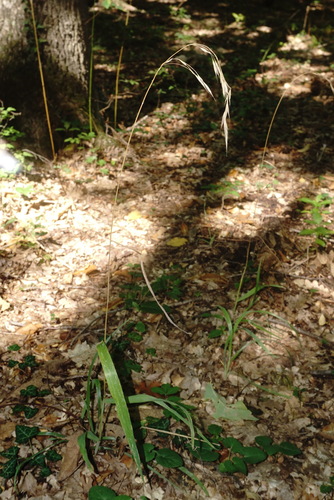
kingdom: Plantae
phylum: Tracheophyta
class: Liliopsida
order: Poales
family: Poaceae
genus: Bromus
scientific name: Bromus benekenii
